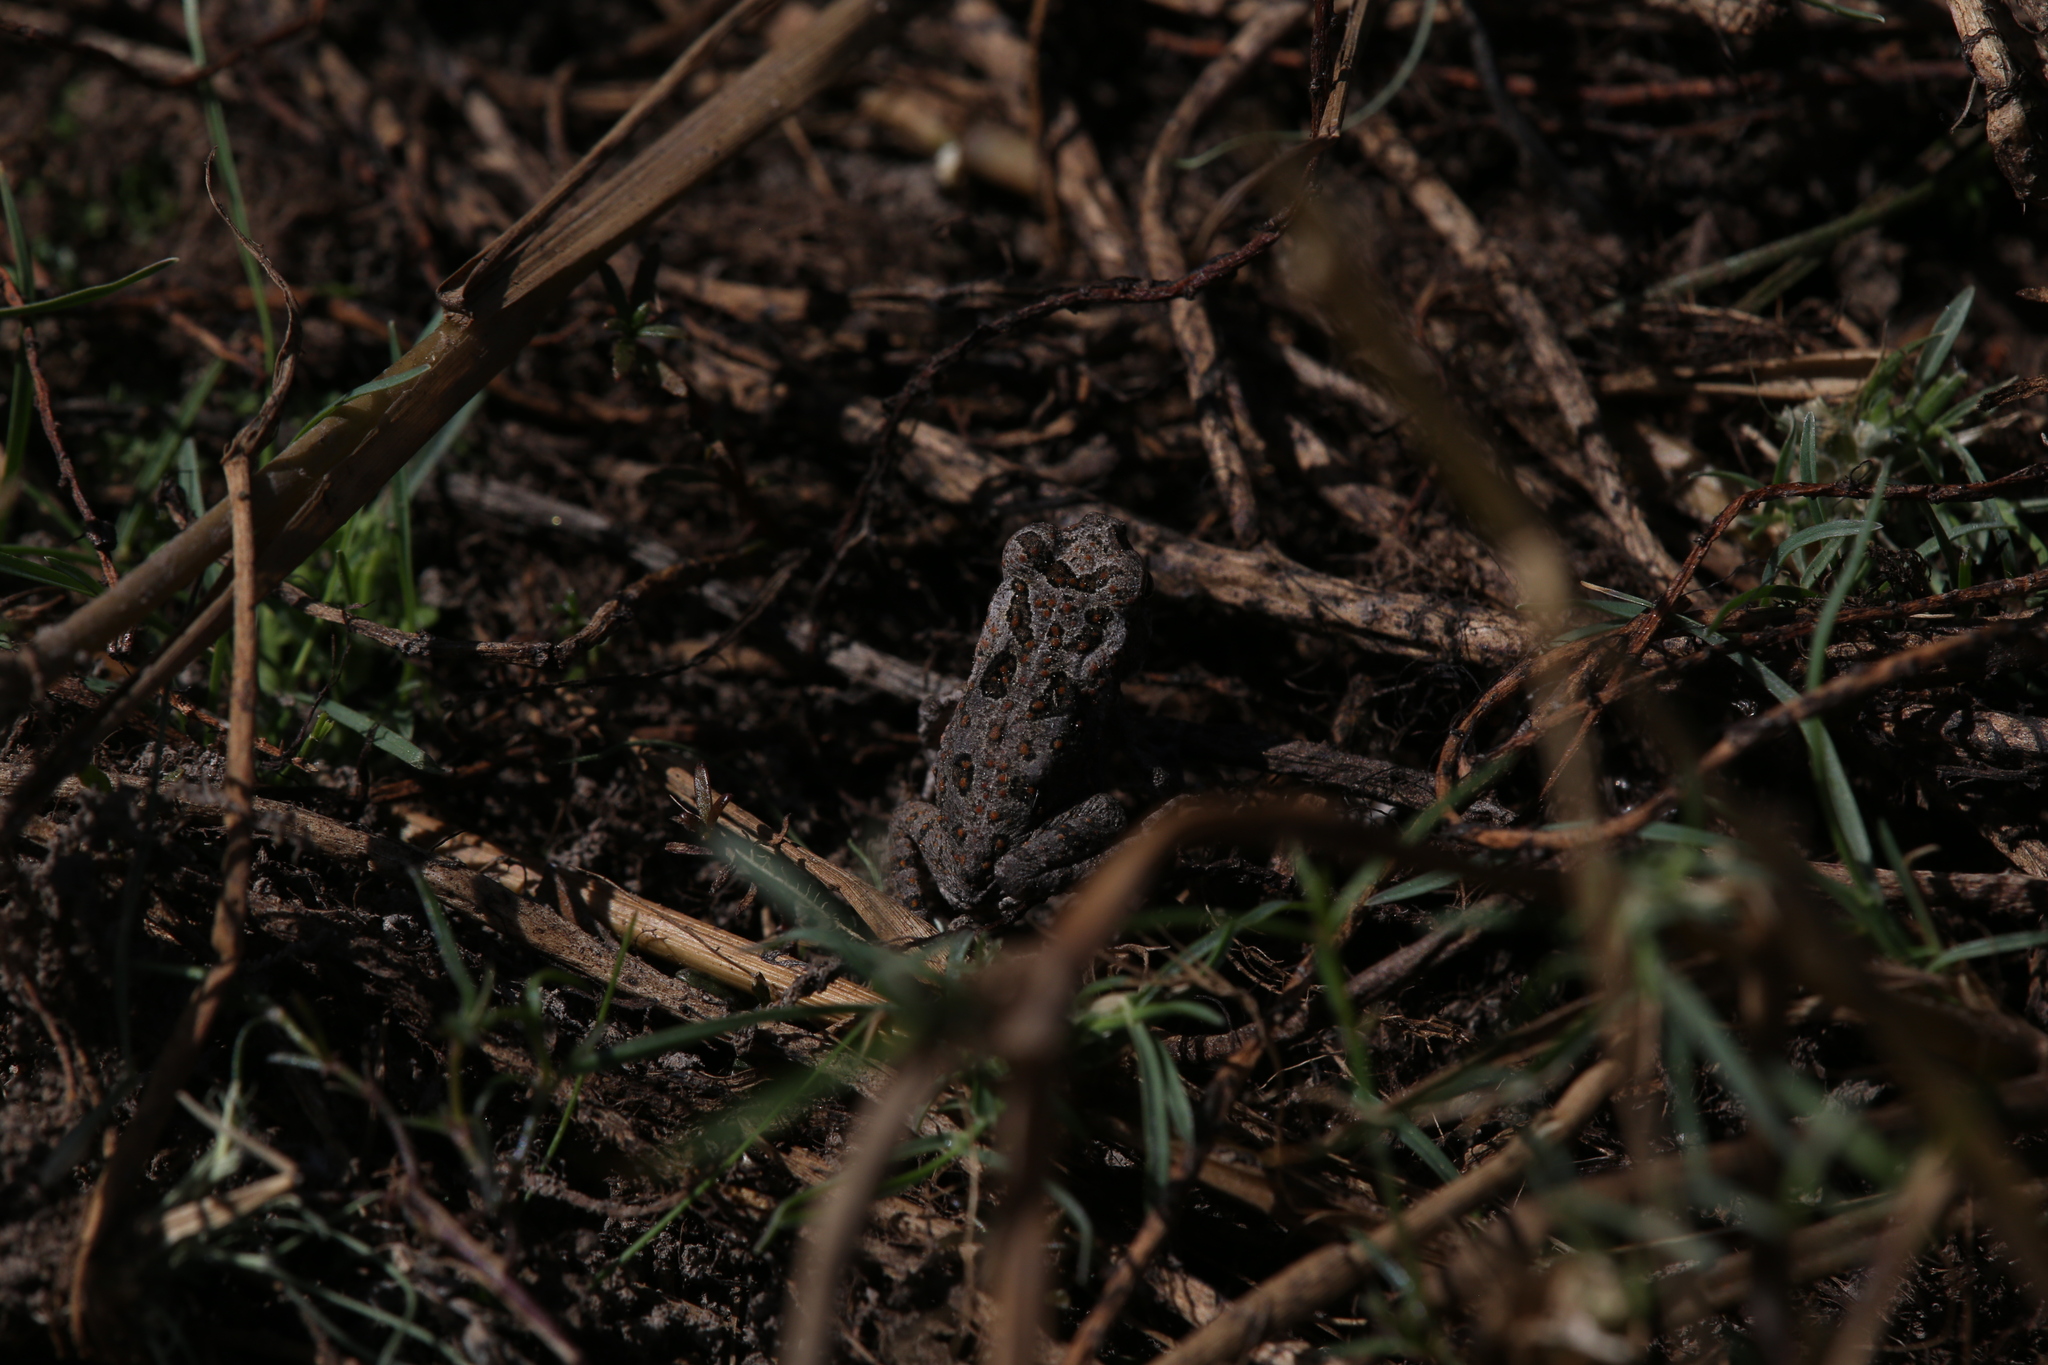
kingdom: Animalia
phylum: Chordata
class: Amphibia
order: Anura
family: Bufonidae
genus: Rhinella
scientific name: Rhinella marina
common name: Cane toad
